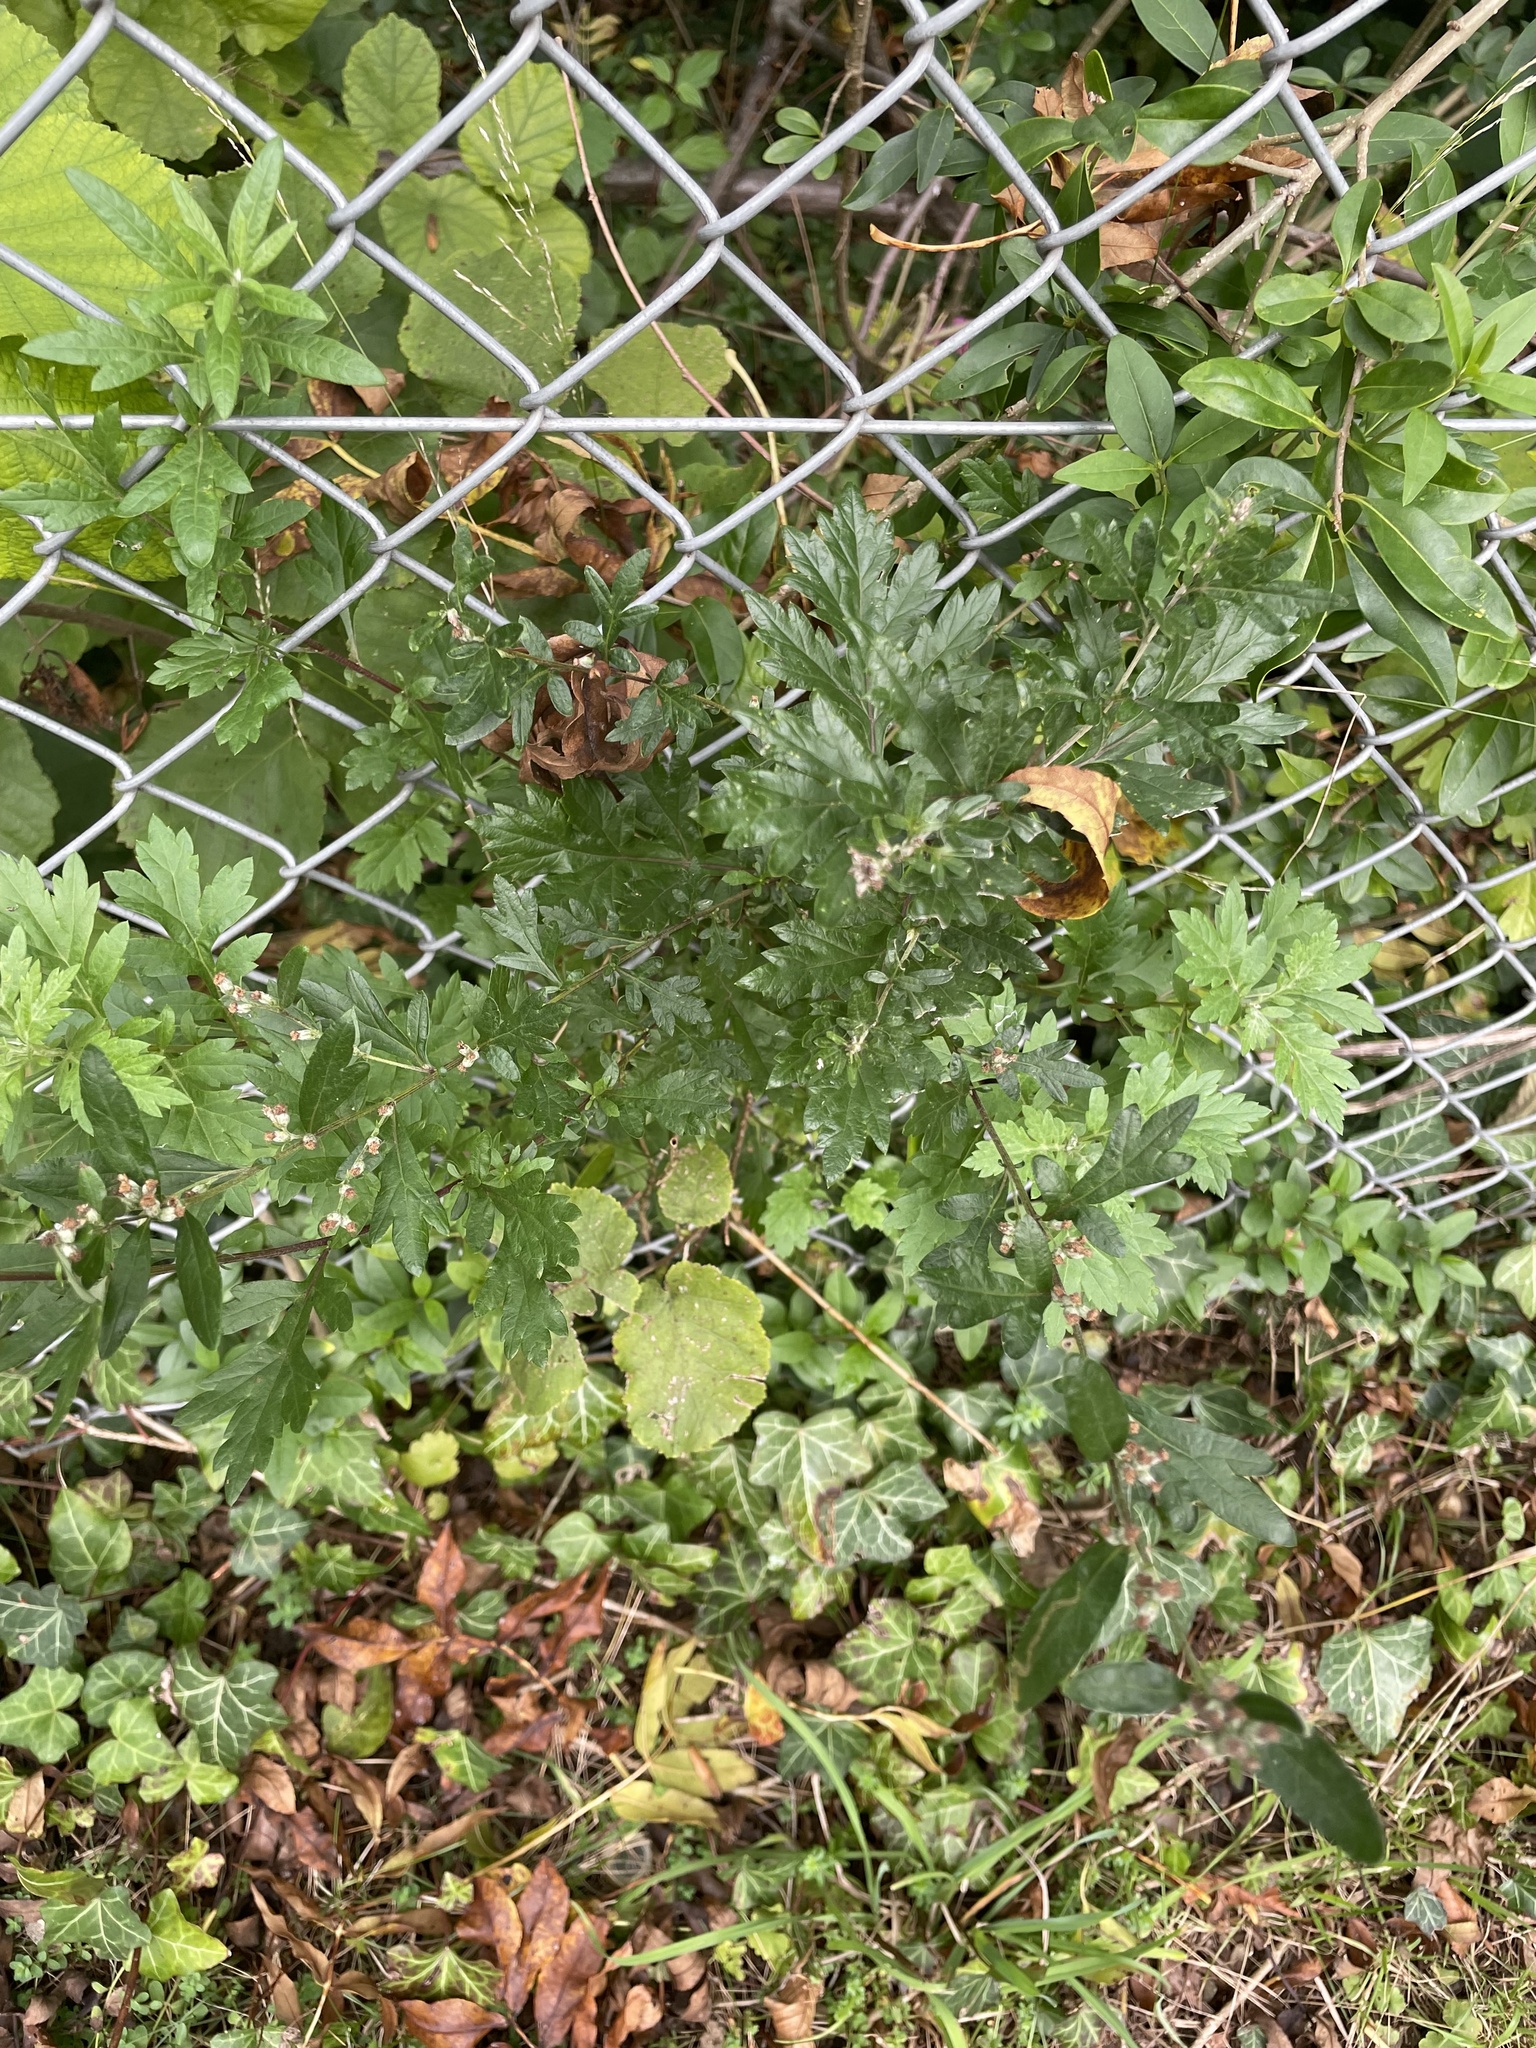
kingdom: Plantae
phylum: Tracheophyta
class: Magnoliopsida
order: Asterales
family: Asteraceae
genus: Artemisia
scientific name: Artemisia vulgaris
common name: Mugwort
